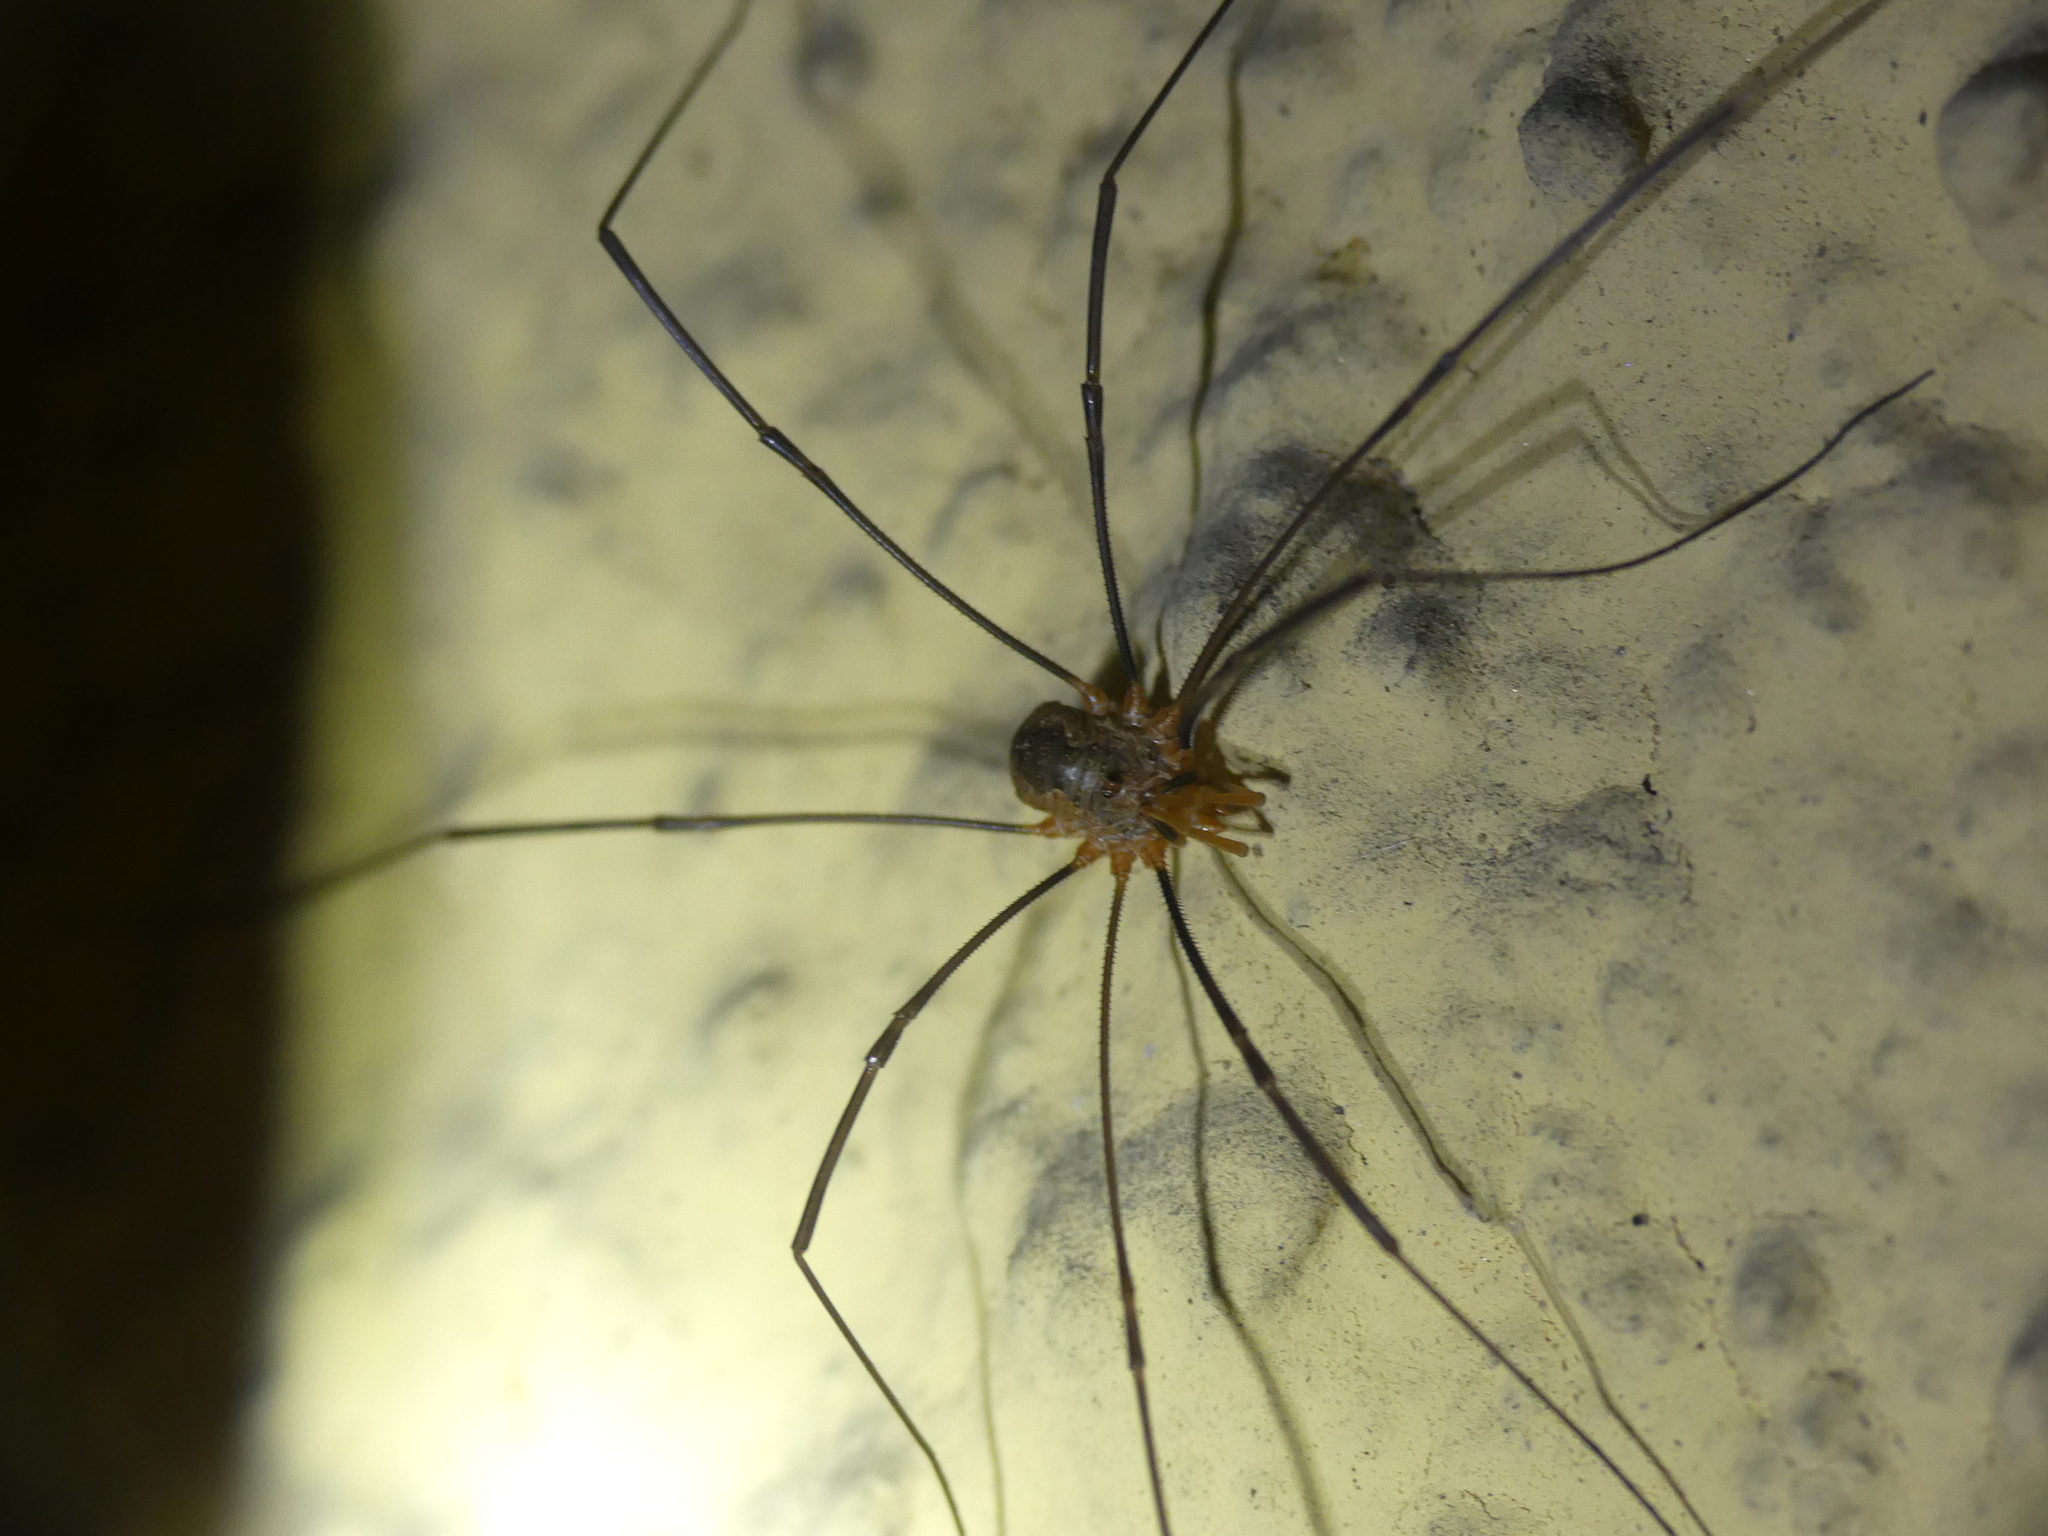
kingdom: Animalia
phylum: Arthropoda
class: Arachnida
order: Opiliones
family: Phalangiidae
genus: Phalangium
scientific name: Phalangium opilio
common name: Daddy longleg
